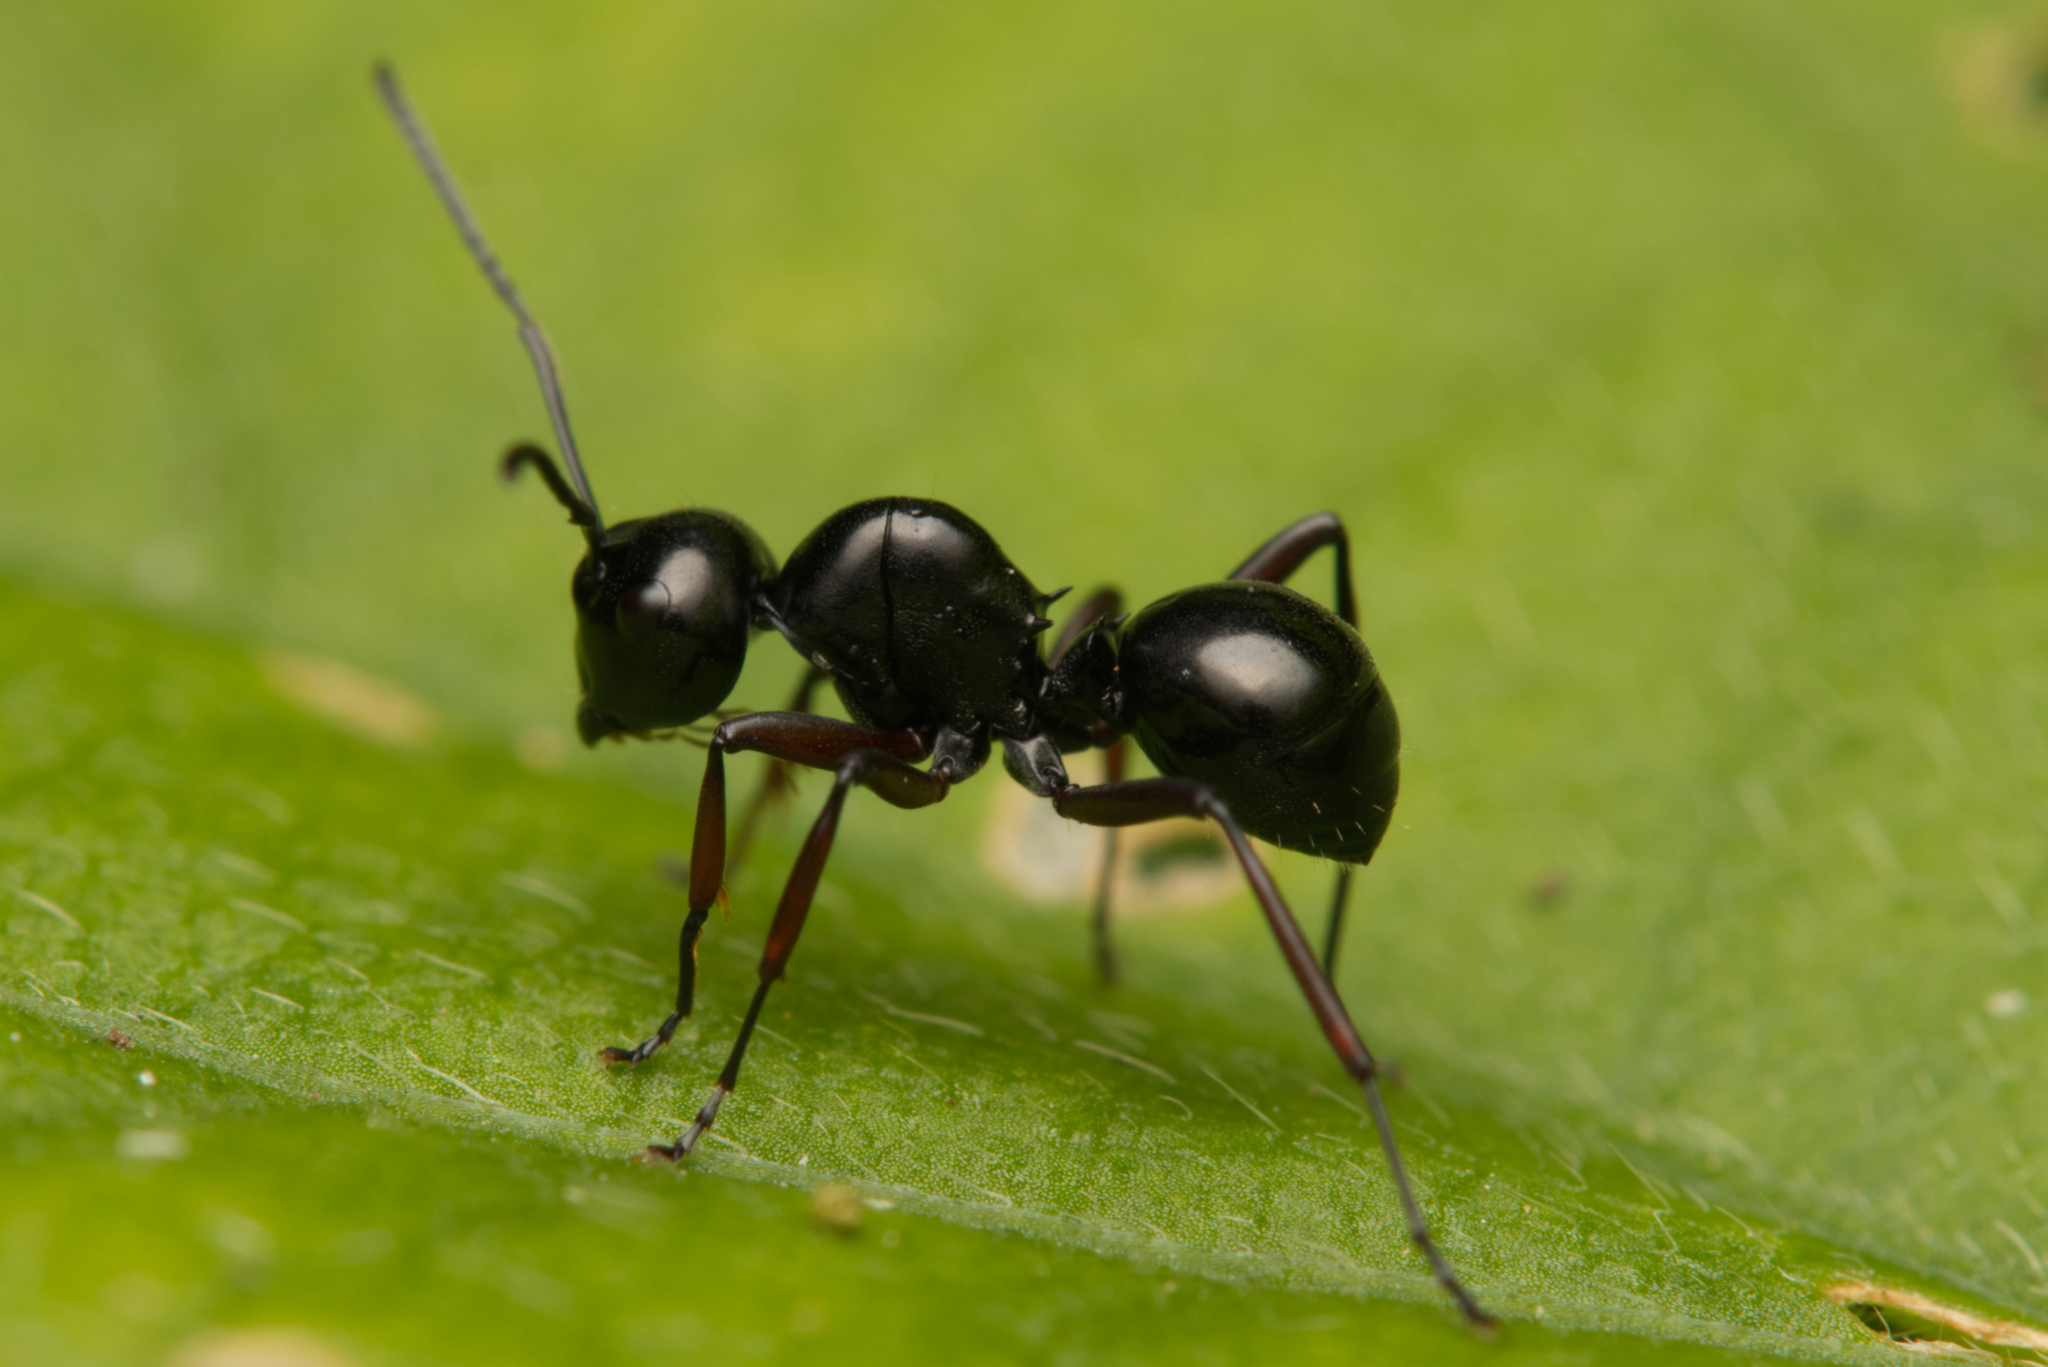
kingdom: Animalia
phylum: Arthropoda
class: Insecta
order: Hymenoptera
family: Formicidae
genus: Polyrhachis
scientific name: Polyrhachis australis
